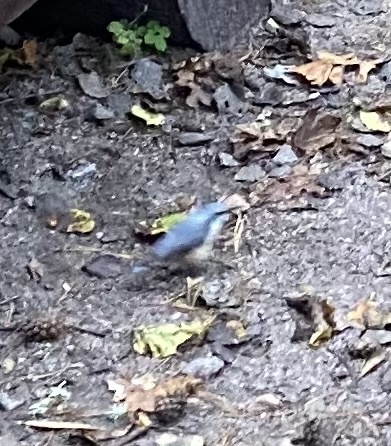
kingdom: Animalia
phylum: Chordata
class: Aves
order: Passeriformes
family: Sittidae
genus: Sitta
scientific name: Sitta europaea
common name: Eurasian nuthatch
